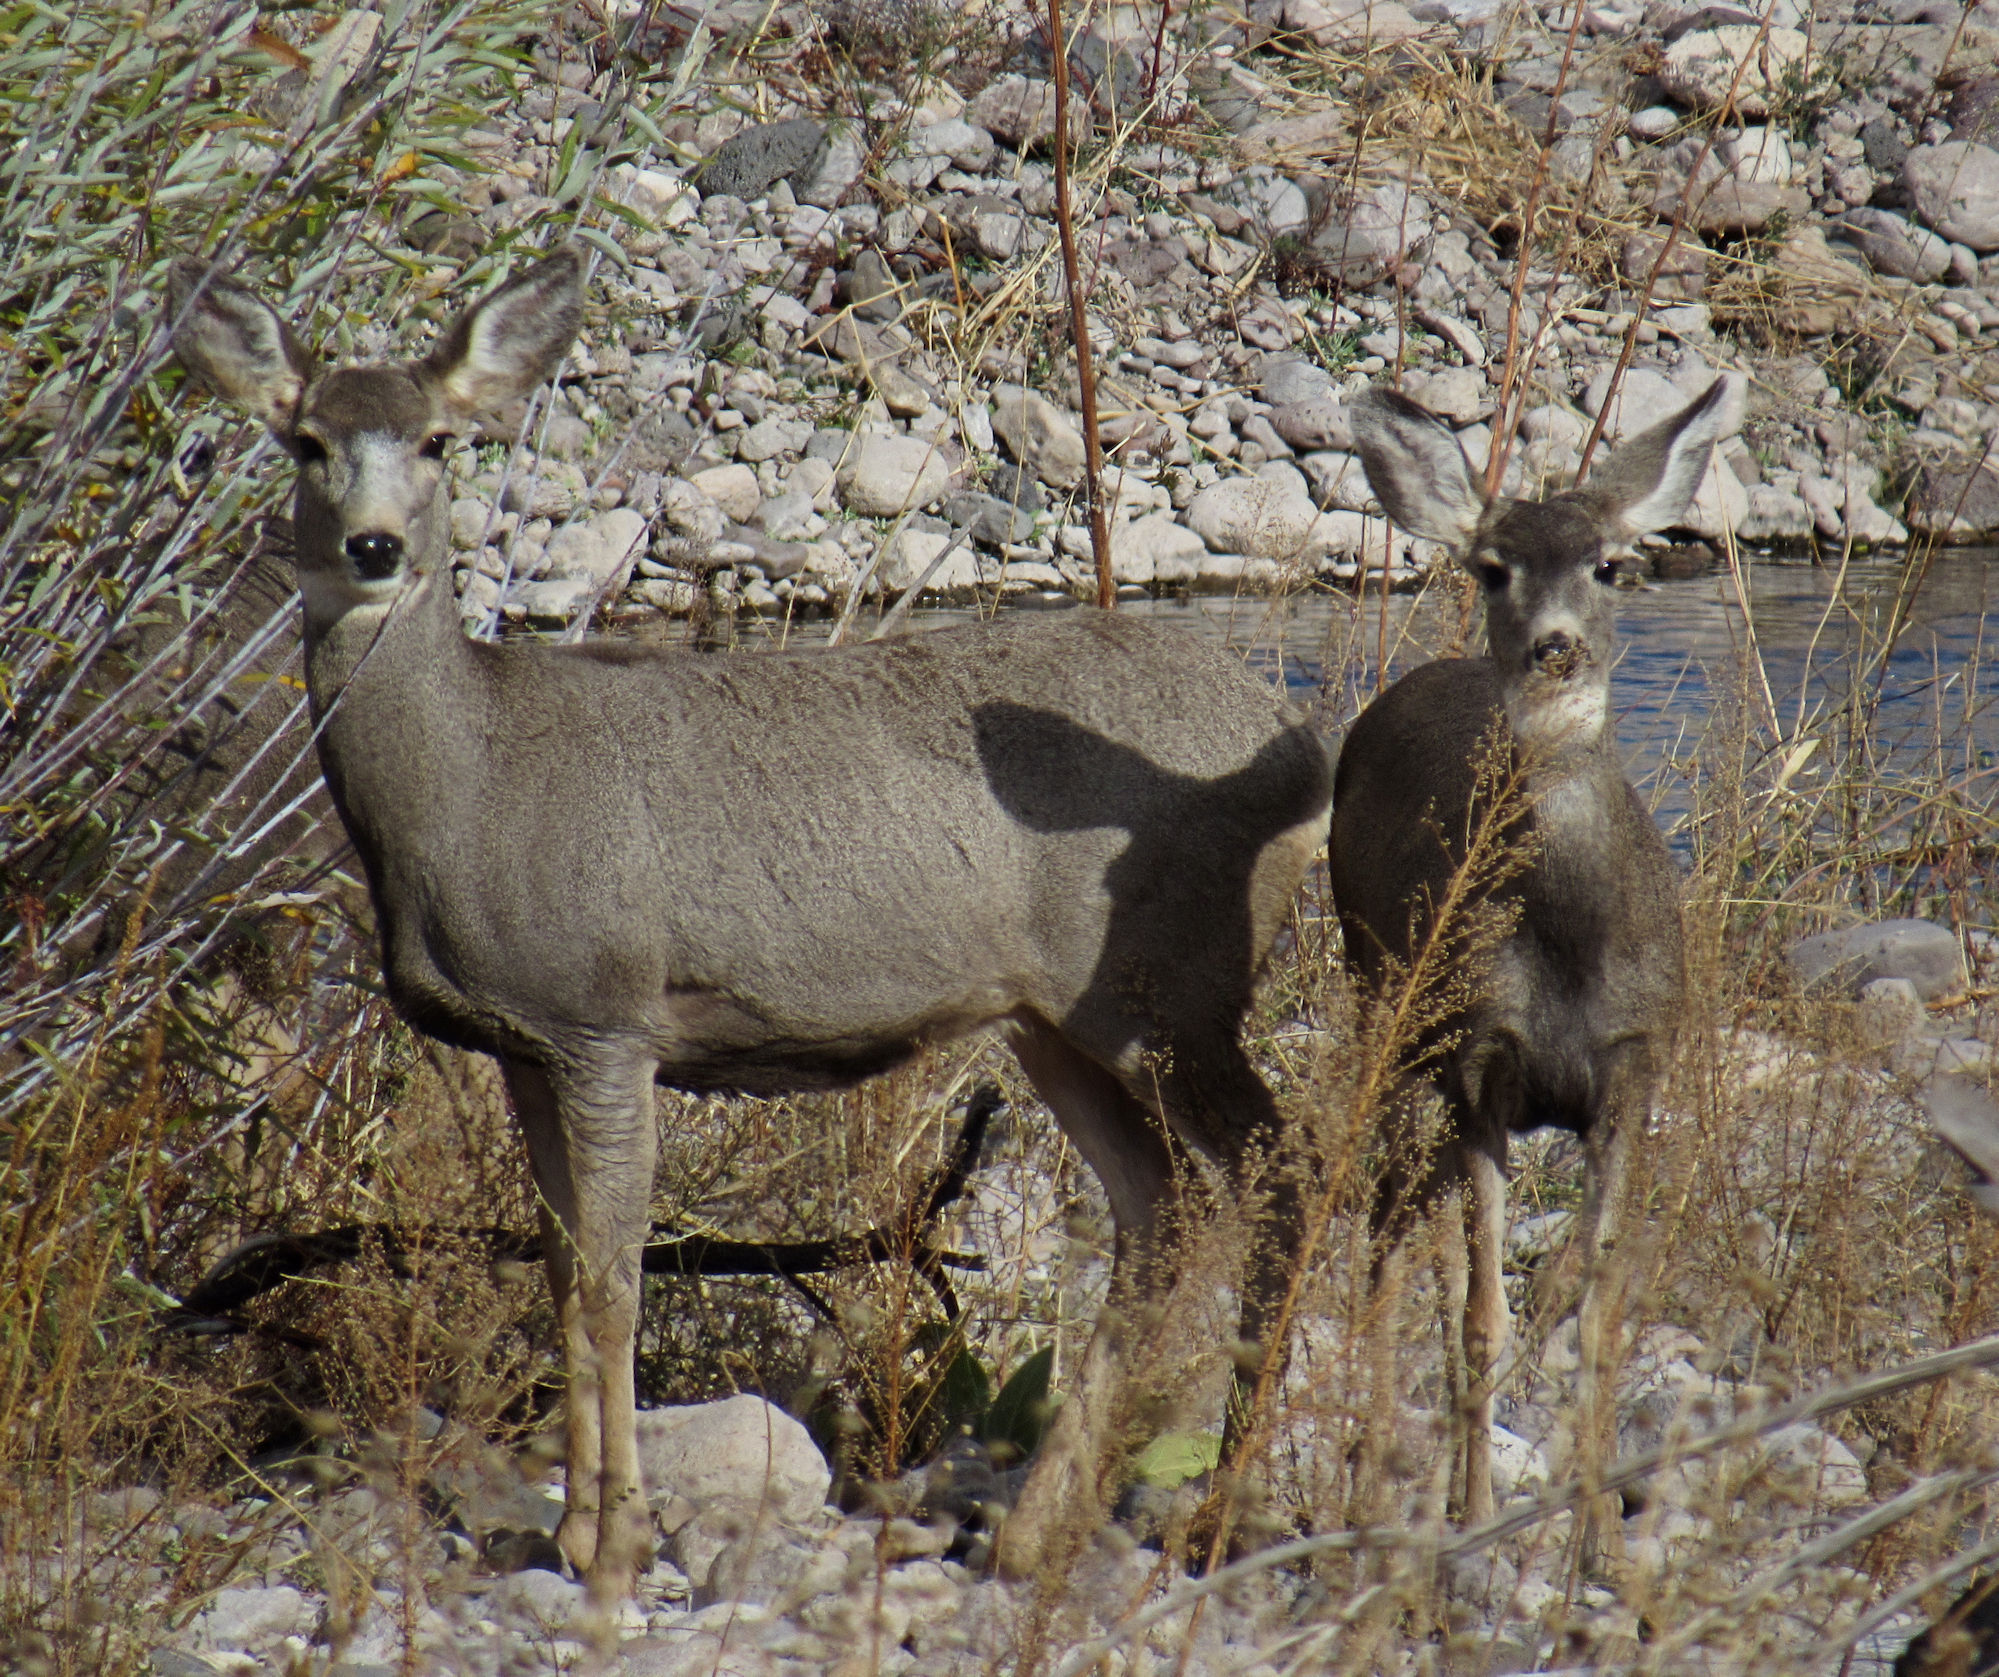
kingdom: Animalia
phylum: Chordata
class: Mammalia
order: Artiodactyla
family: Cervidae
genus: Odocoileus
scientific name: Odocoileus hemionus
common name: Mule deer
